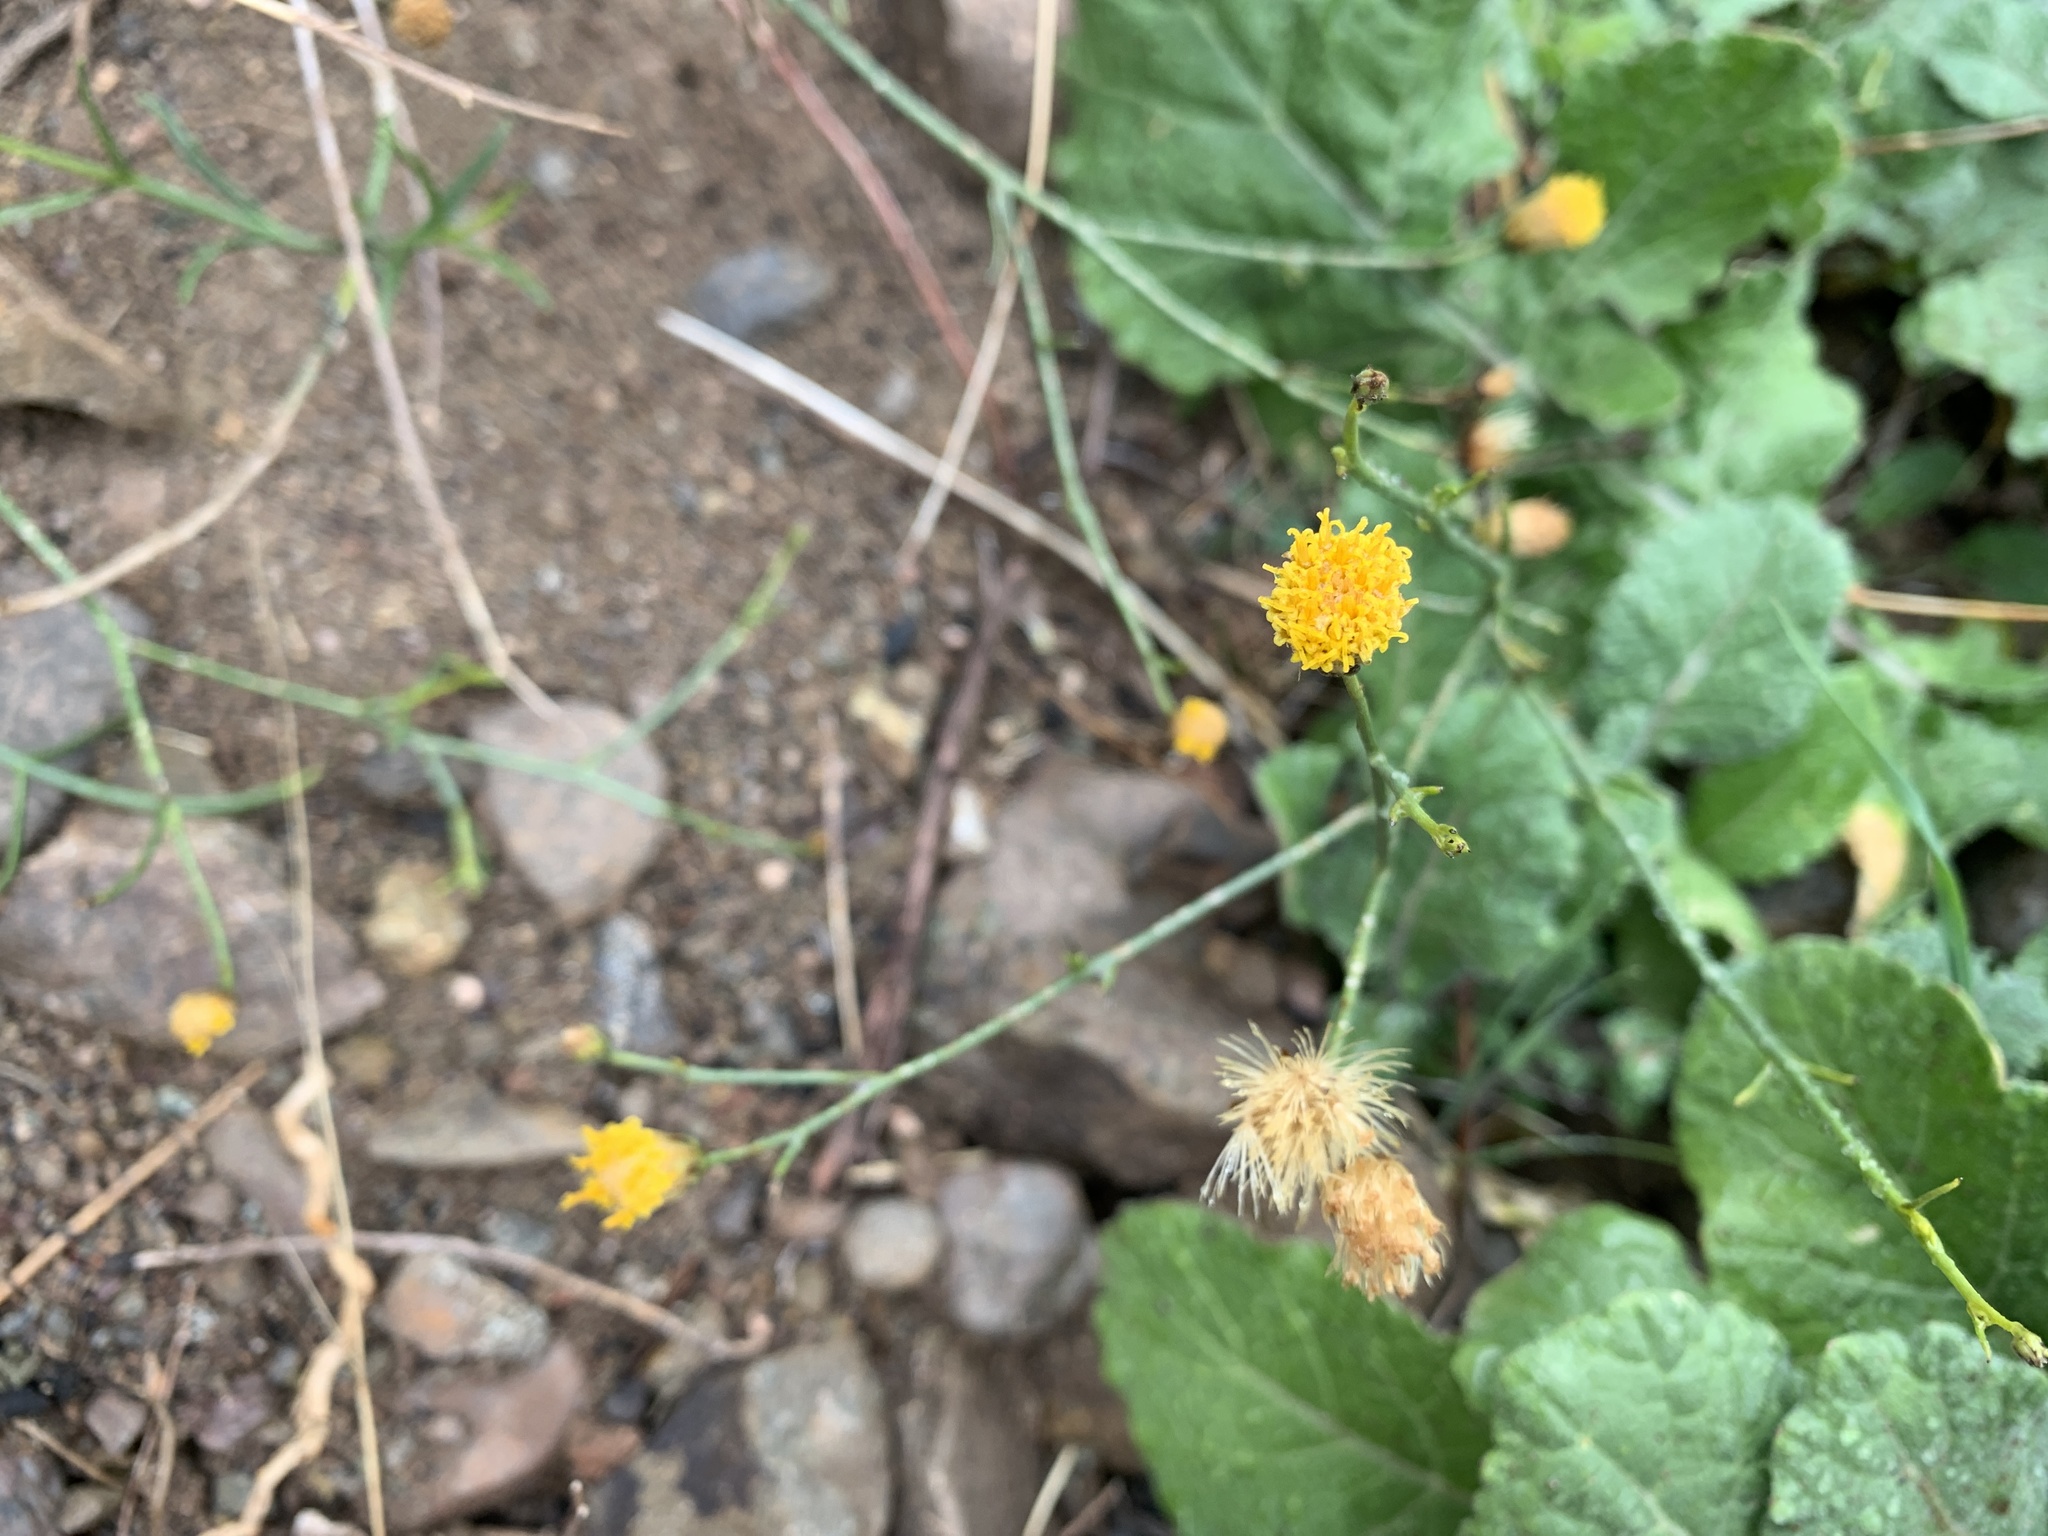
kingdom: Plantae
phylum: Tracheophyta
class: Magnoliopsida
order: Asterales
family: Asteraceae
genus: Bebbia
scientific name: Bebbia juncea
